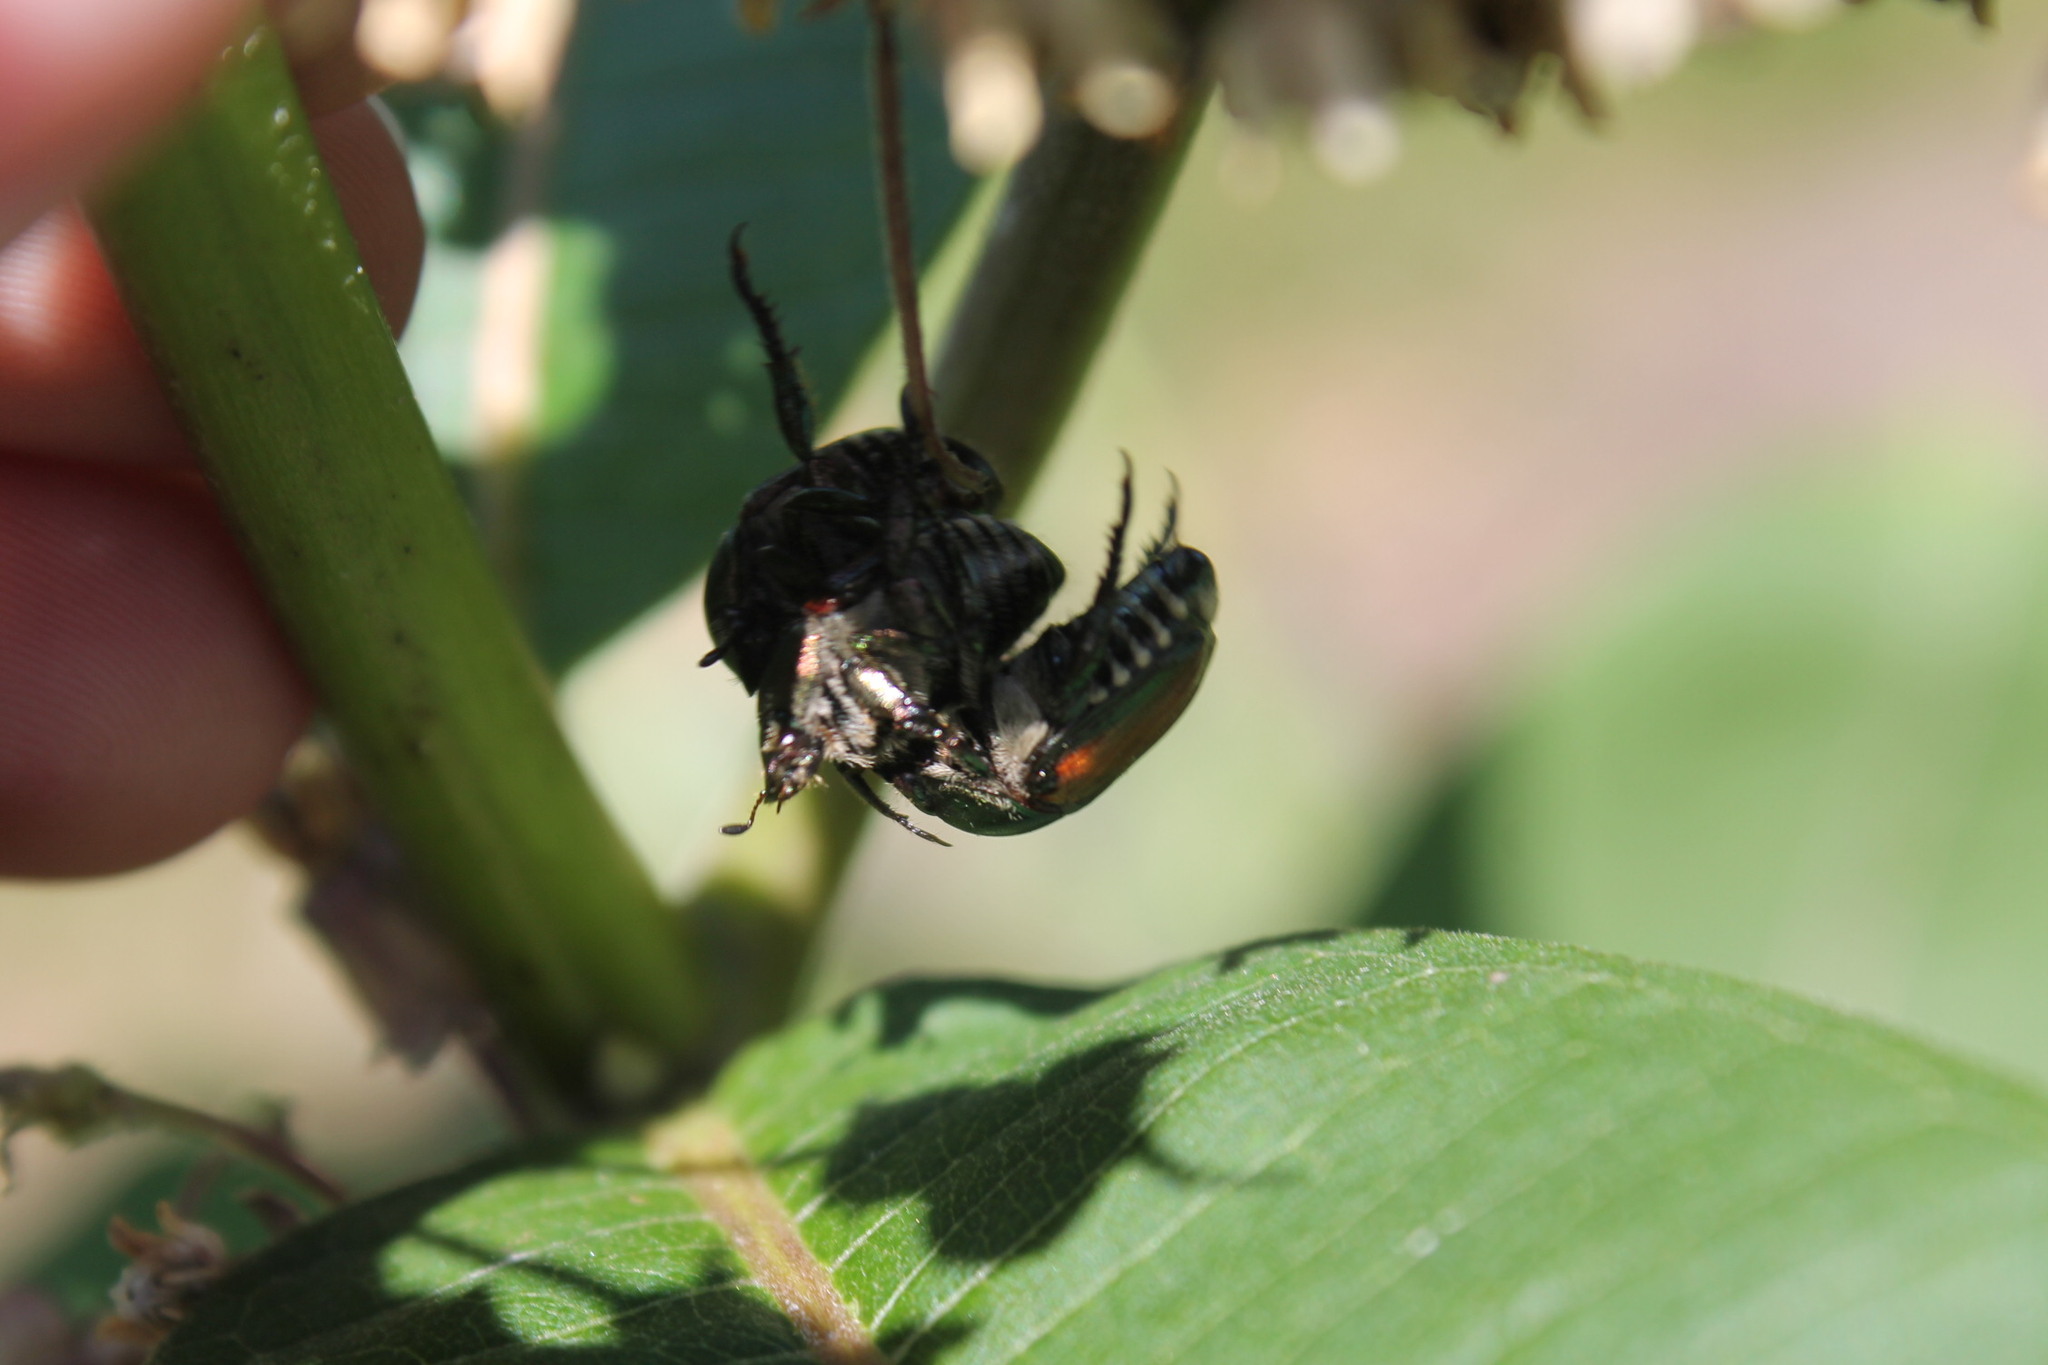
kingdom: Animalia
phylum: Arthropoda
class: Insecta
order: Coleoptera
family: Scarabaeidae
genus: Popillia
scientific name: Popillia japonica
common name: Japanese beetle
